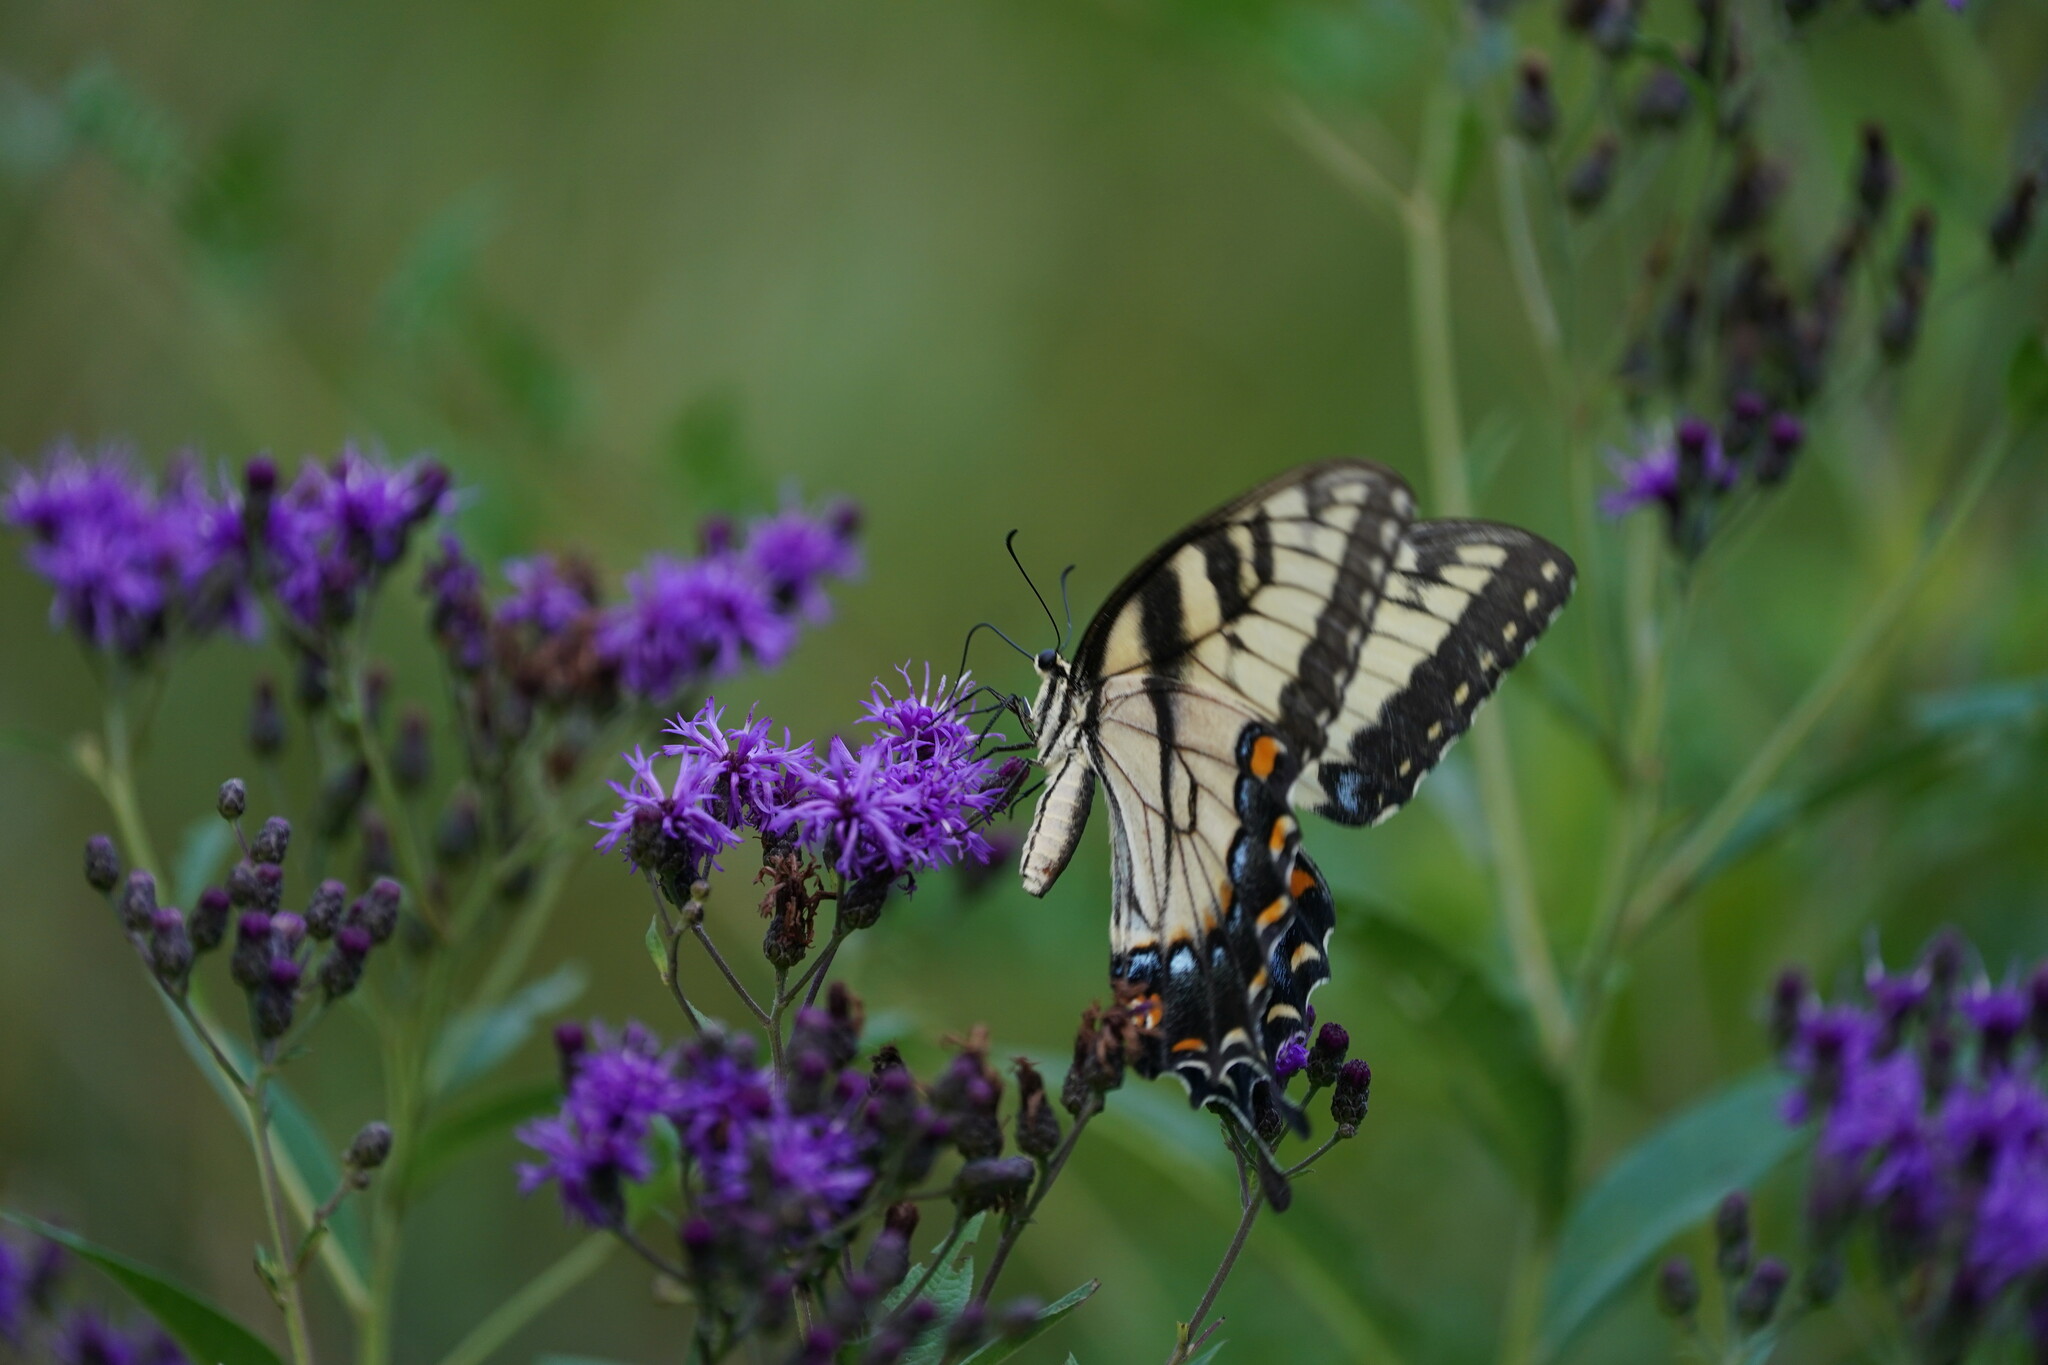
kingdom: Animalia
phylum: Arthropoda
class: Insecta
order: Lepidoptera
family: Papilionidae
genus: Papilio
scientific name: Papilio glaucus
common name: Tiger swallowtail
